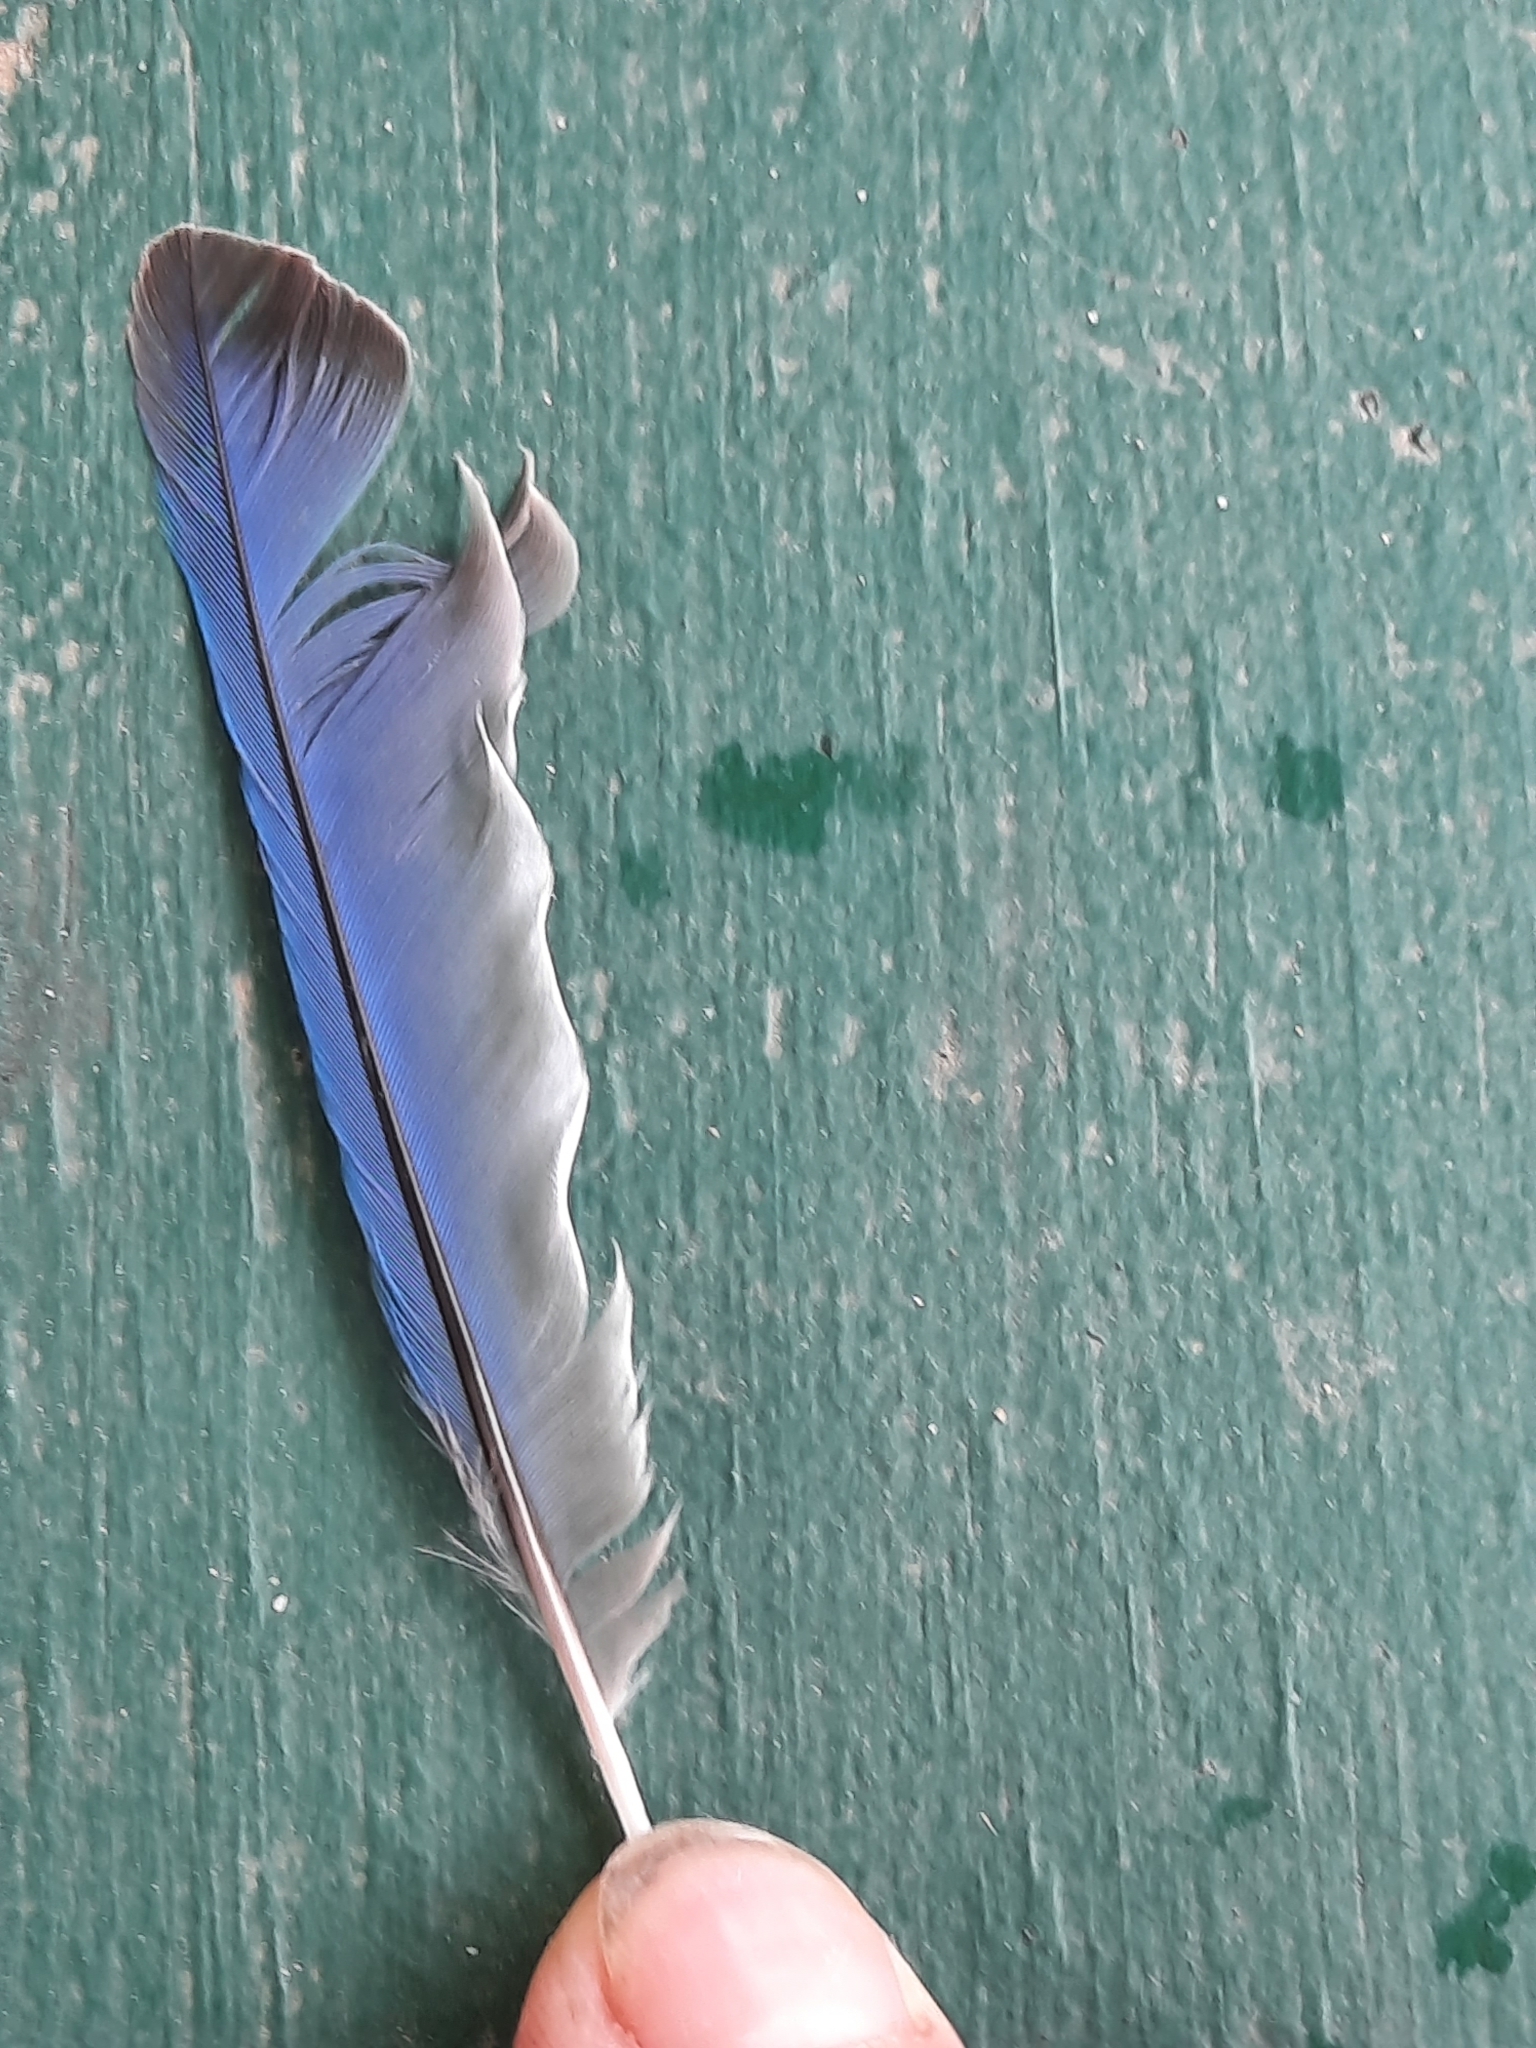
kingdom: Animalia
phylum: Chordata
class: Aves
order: Passeriformes
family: Turdidae
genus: Sialia
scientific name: Sialia sialis
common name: Eastern bluebird
